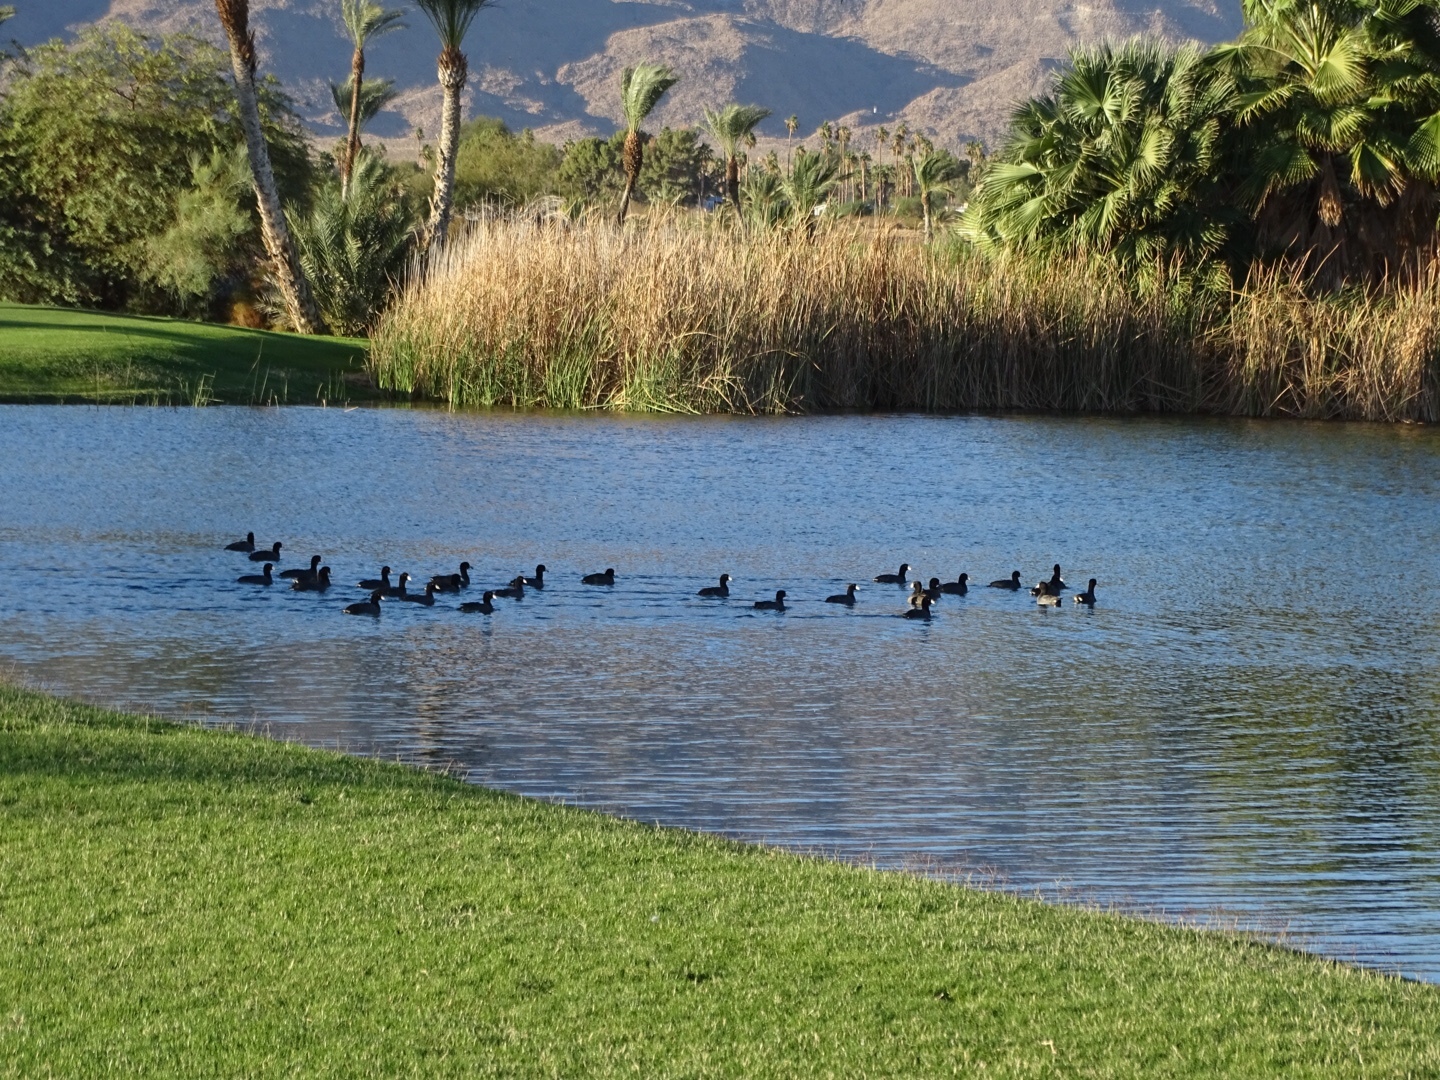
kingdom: Animalia
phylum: Chordata
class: Aves
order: Gruiformes
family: Rallidae
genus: Fulica
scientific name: Fulica americana
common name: American coot
